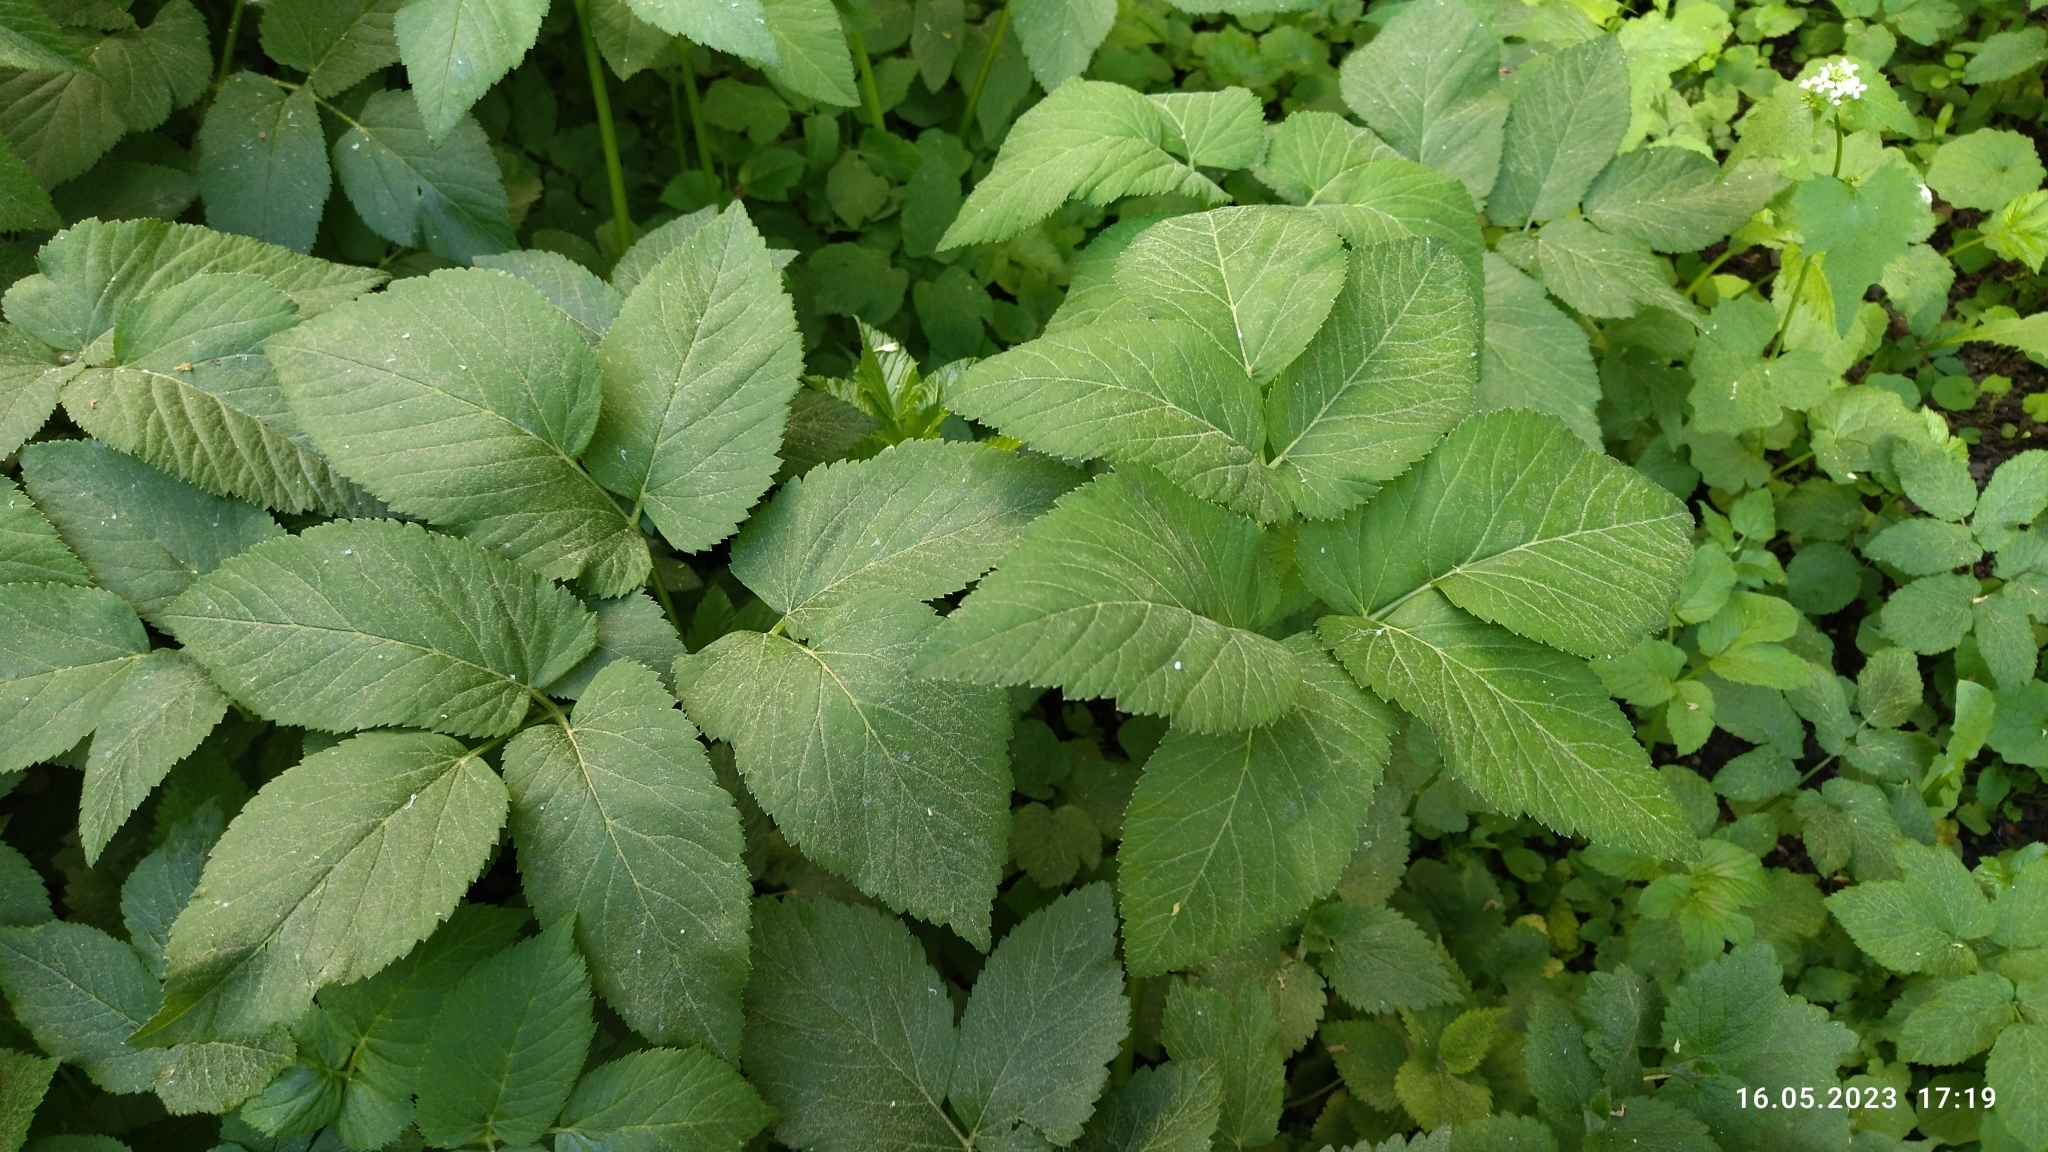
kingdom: Plantae
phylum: Tracheophyta
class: Magnoliopsida
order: Apiales
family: Apiaceae
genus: Aegopodium
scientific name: Aegopodium podagraria
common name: Ground-elder
